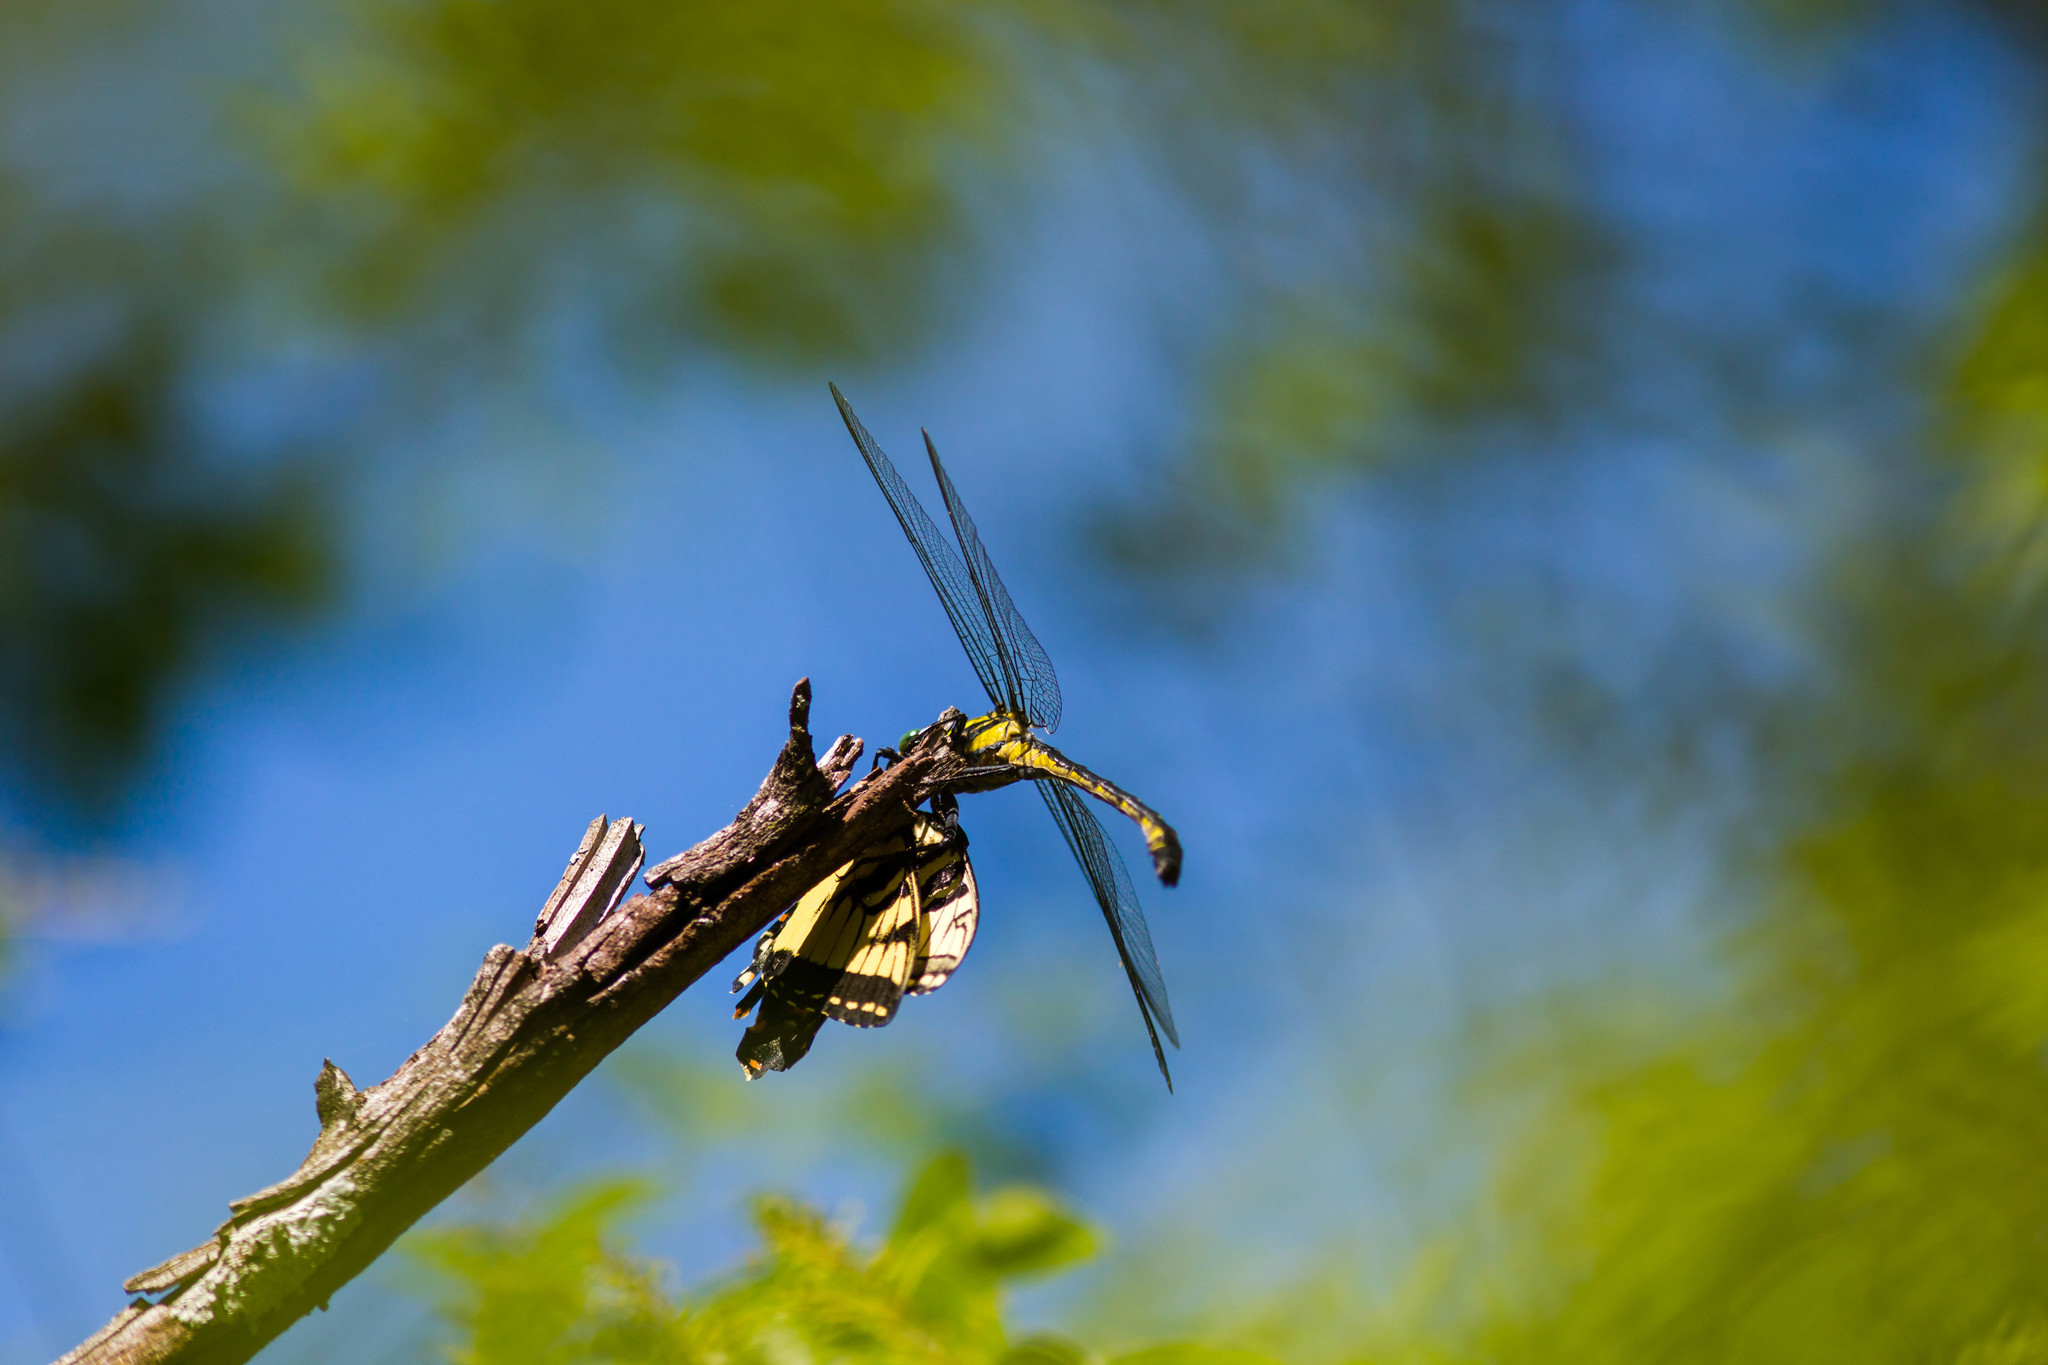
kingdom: Animalia
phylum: Arthropoda
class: Insecta
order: Odonata
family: Gomphidae
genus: Hagenius
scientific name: Hagenius brevistylus
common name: Dragonhunter
